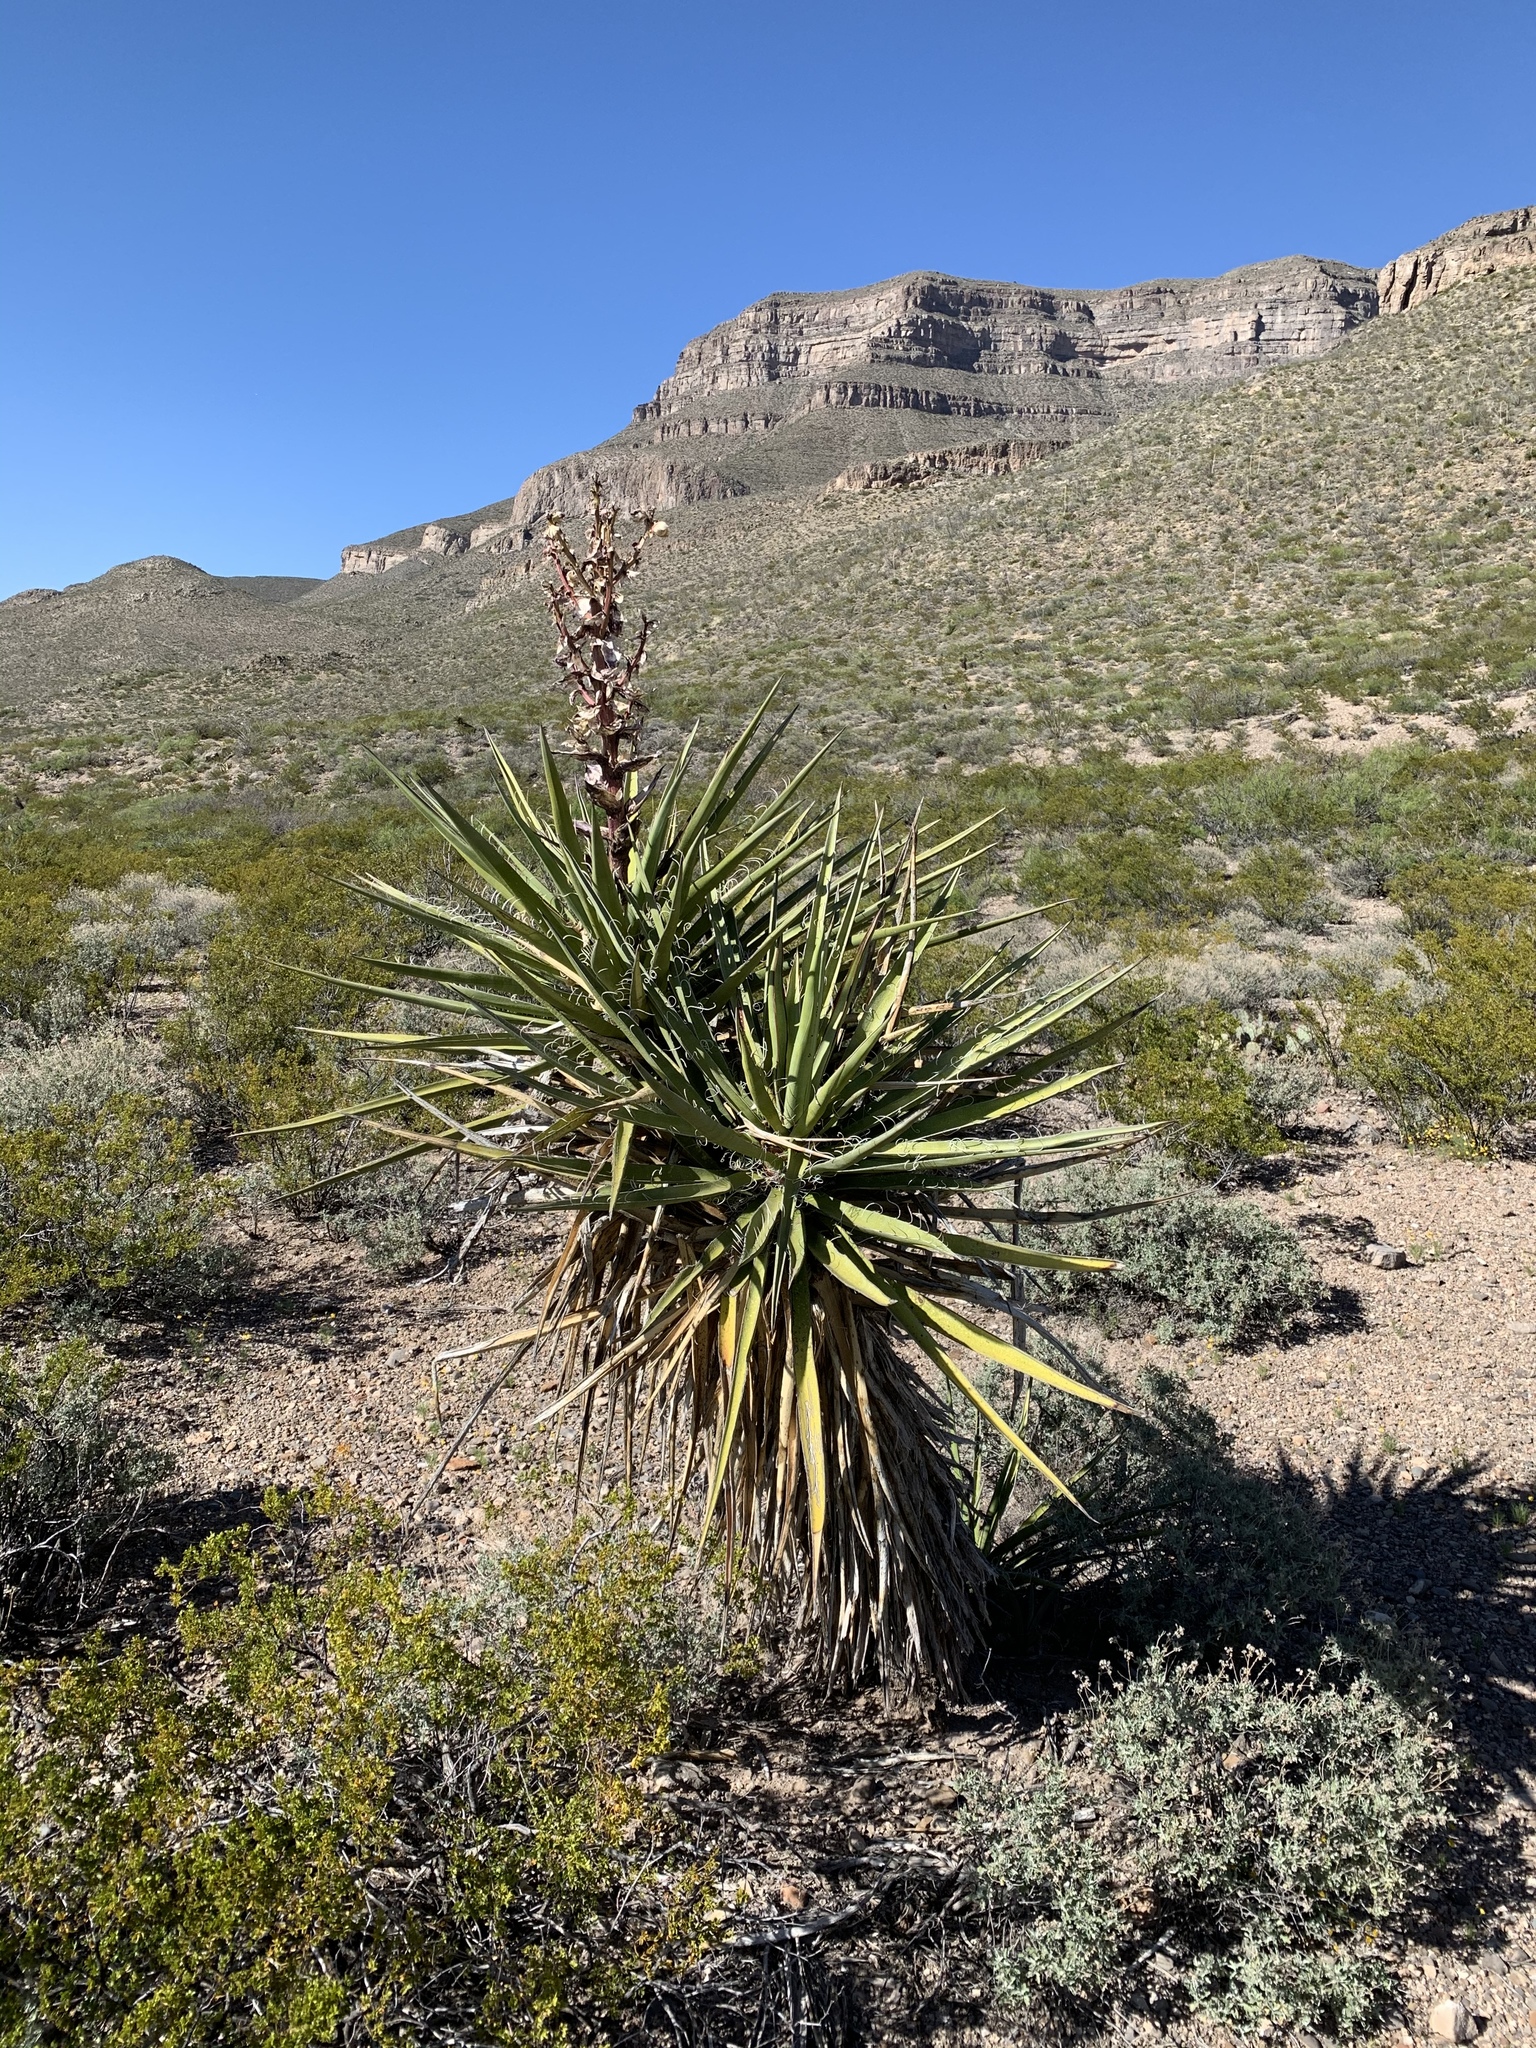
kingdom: Plantae
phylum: Tracheophyta
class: Liliopsida
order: Asparagales
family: Asparagaceae
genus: Yucca
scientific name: Yucca treculiana
